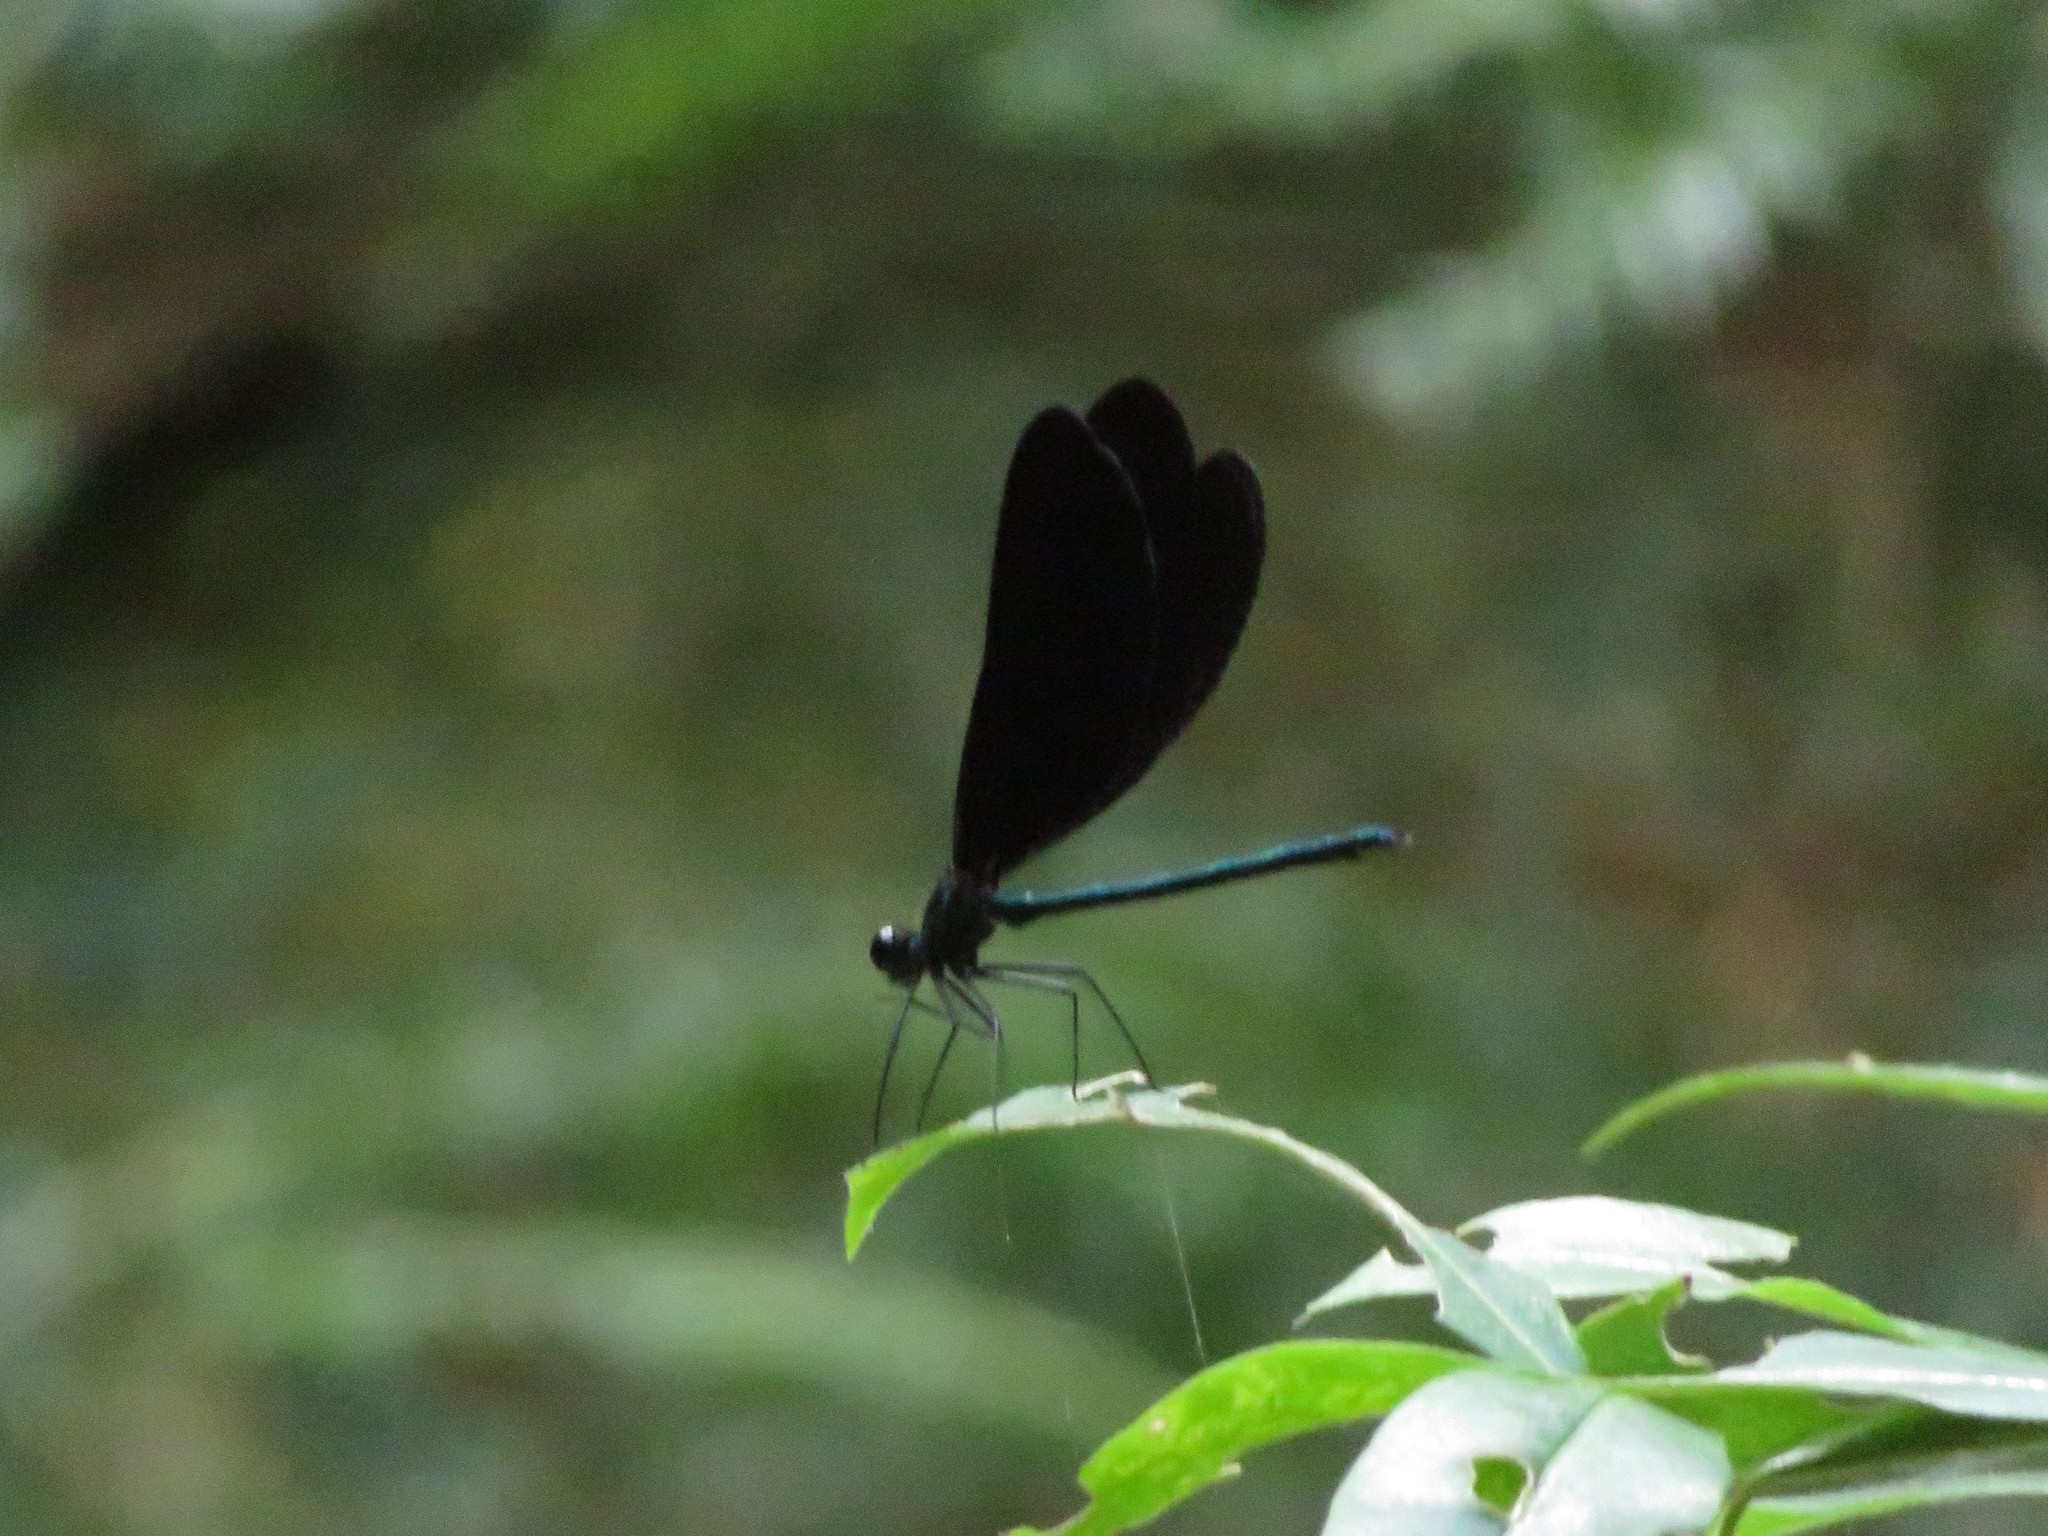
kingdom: Animalia
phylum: Arthropoda
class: Insecta
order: Odonata
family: Calopterygidae
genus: Calopteryx
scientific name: Calopteryx maculata
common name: Ebony jewelwing
